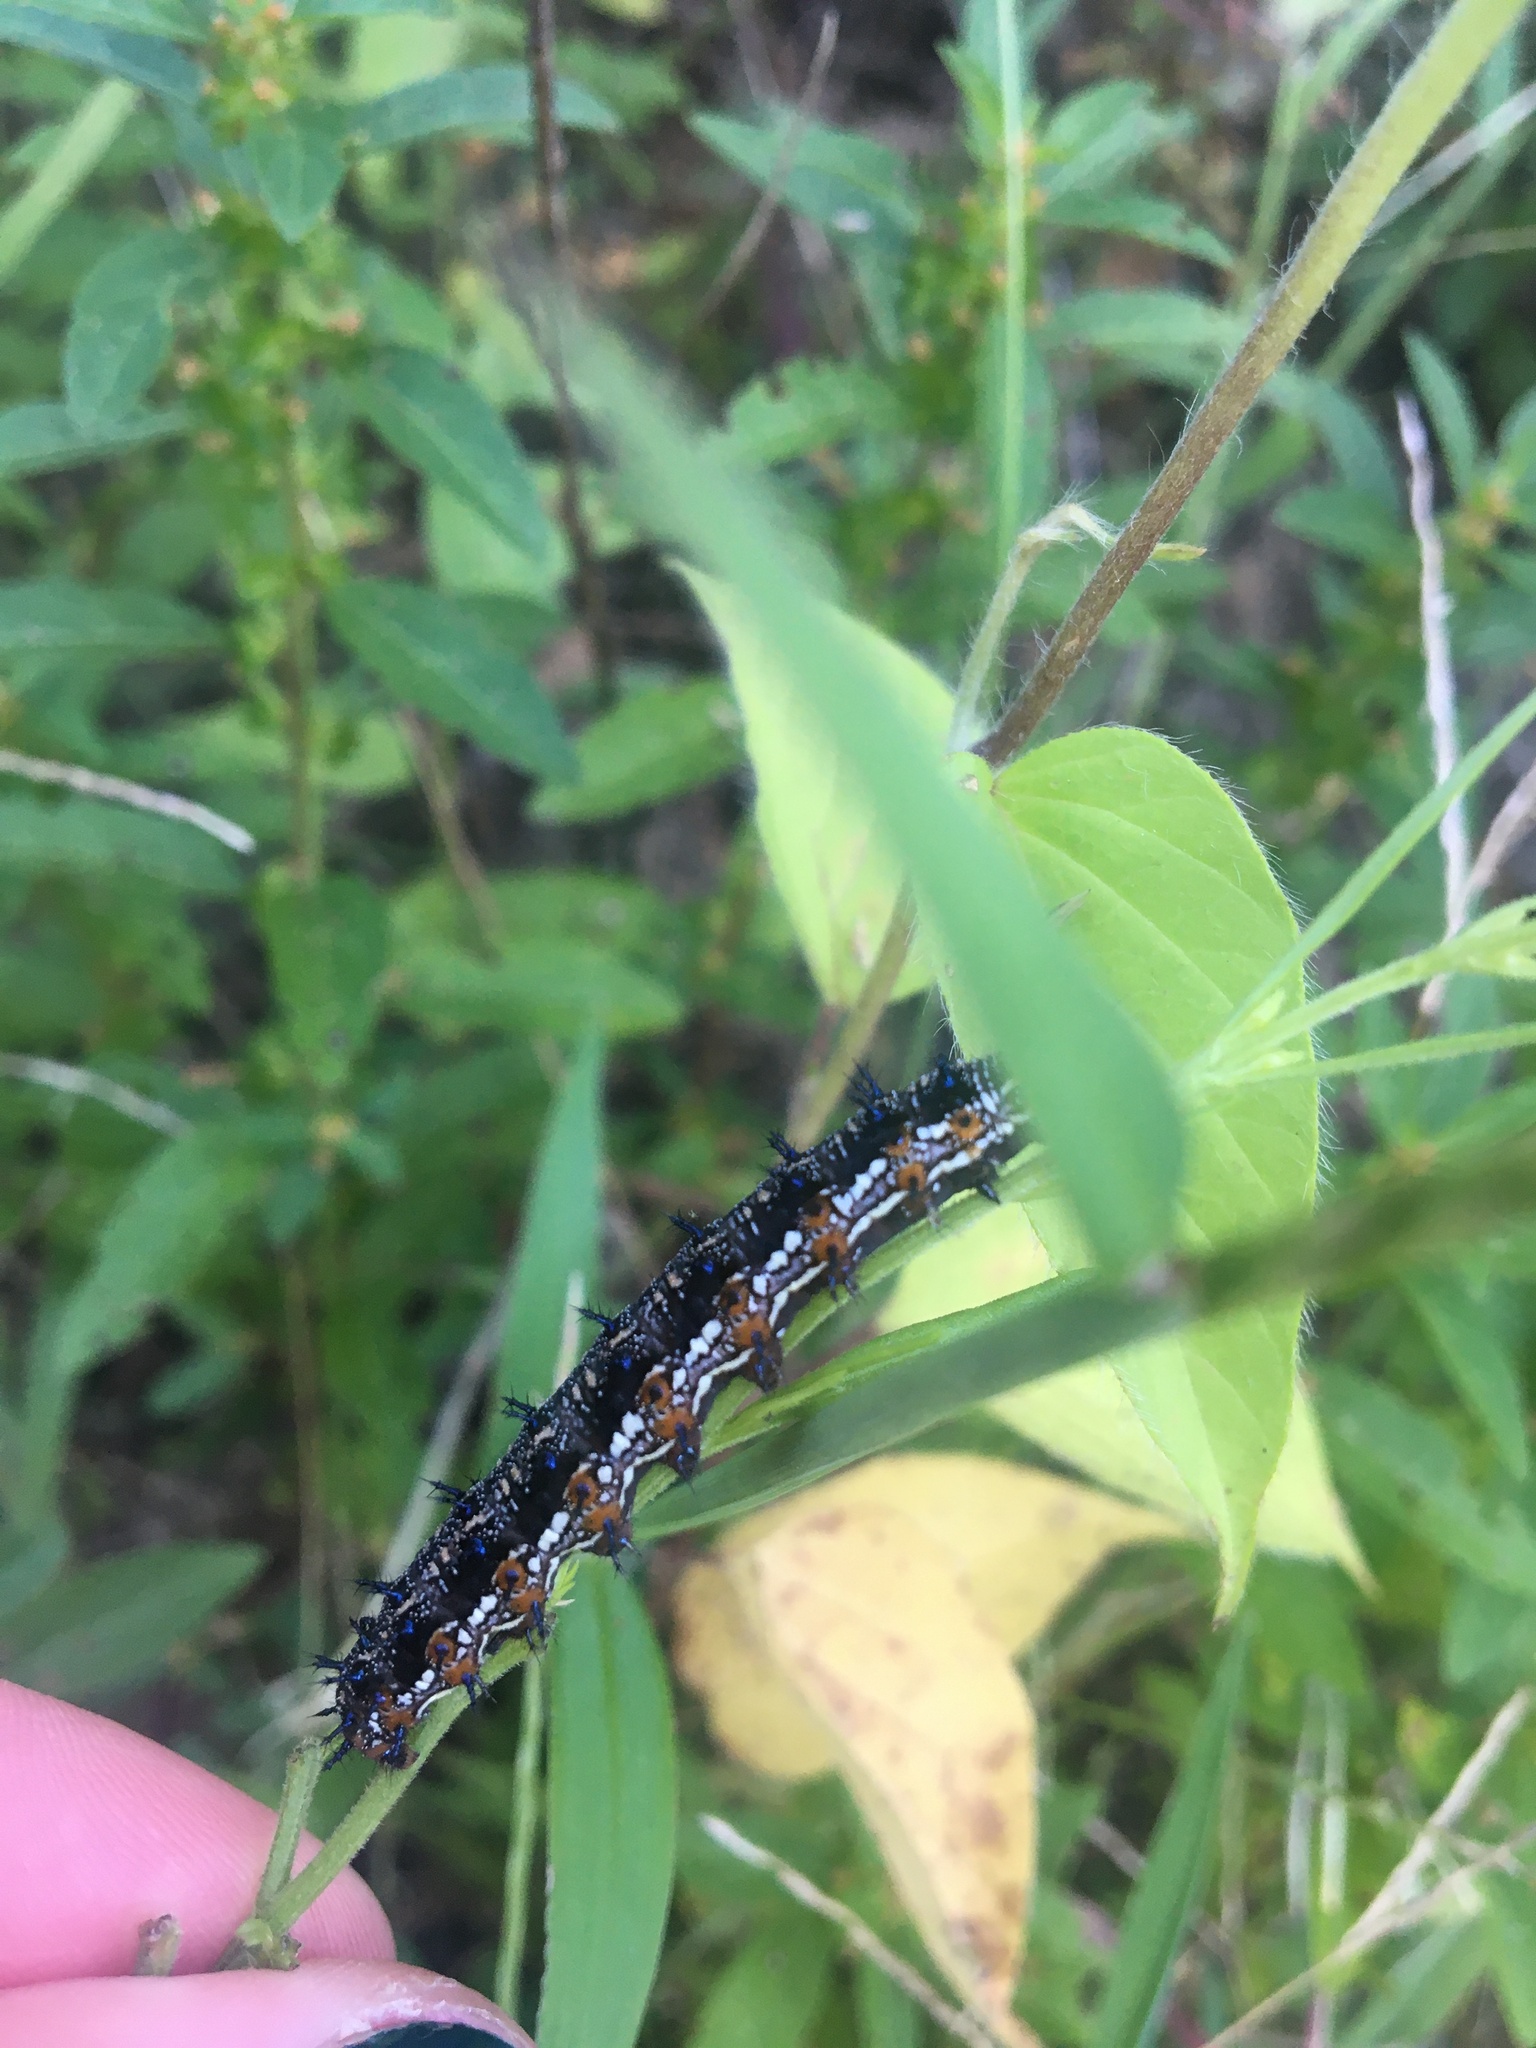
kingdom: Animalia
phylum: Arthropoda
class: Insecta
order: Lepidoptera
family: Nymphalidae
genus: Junonia
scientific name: Junonia coenia
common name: Common buckeye
